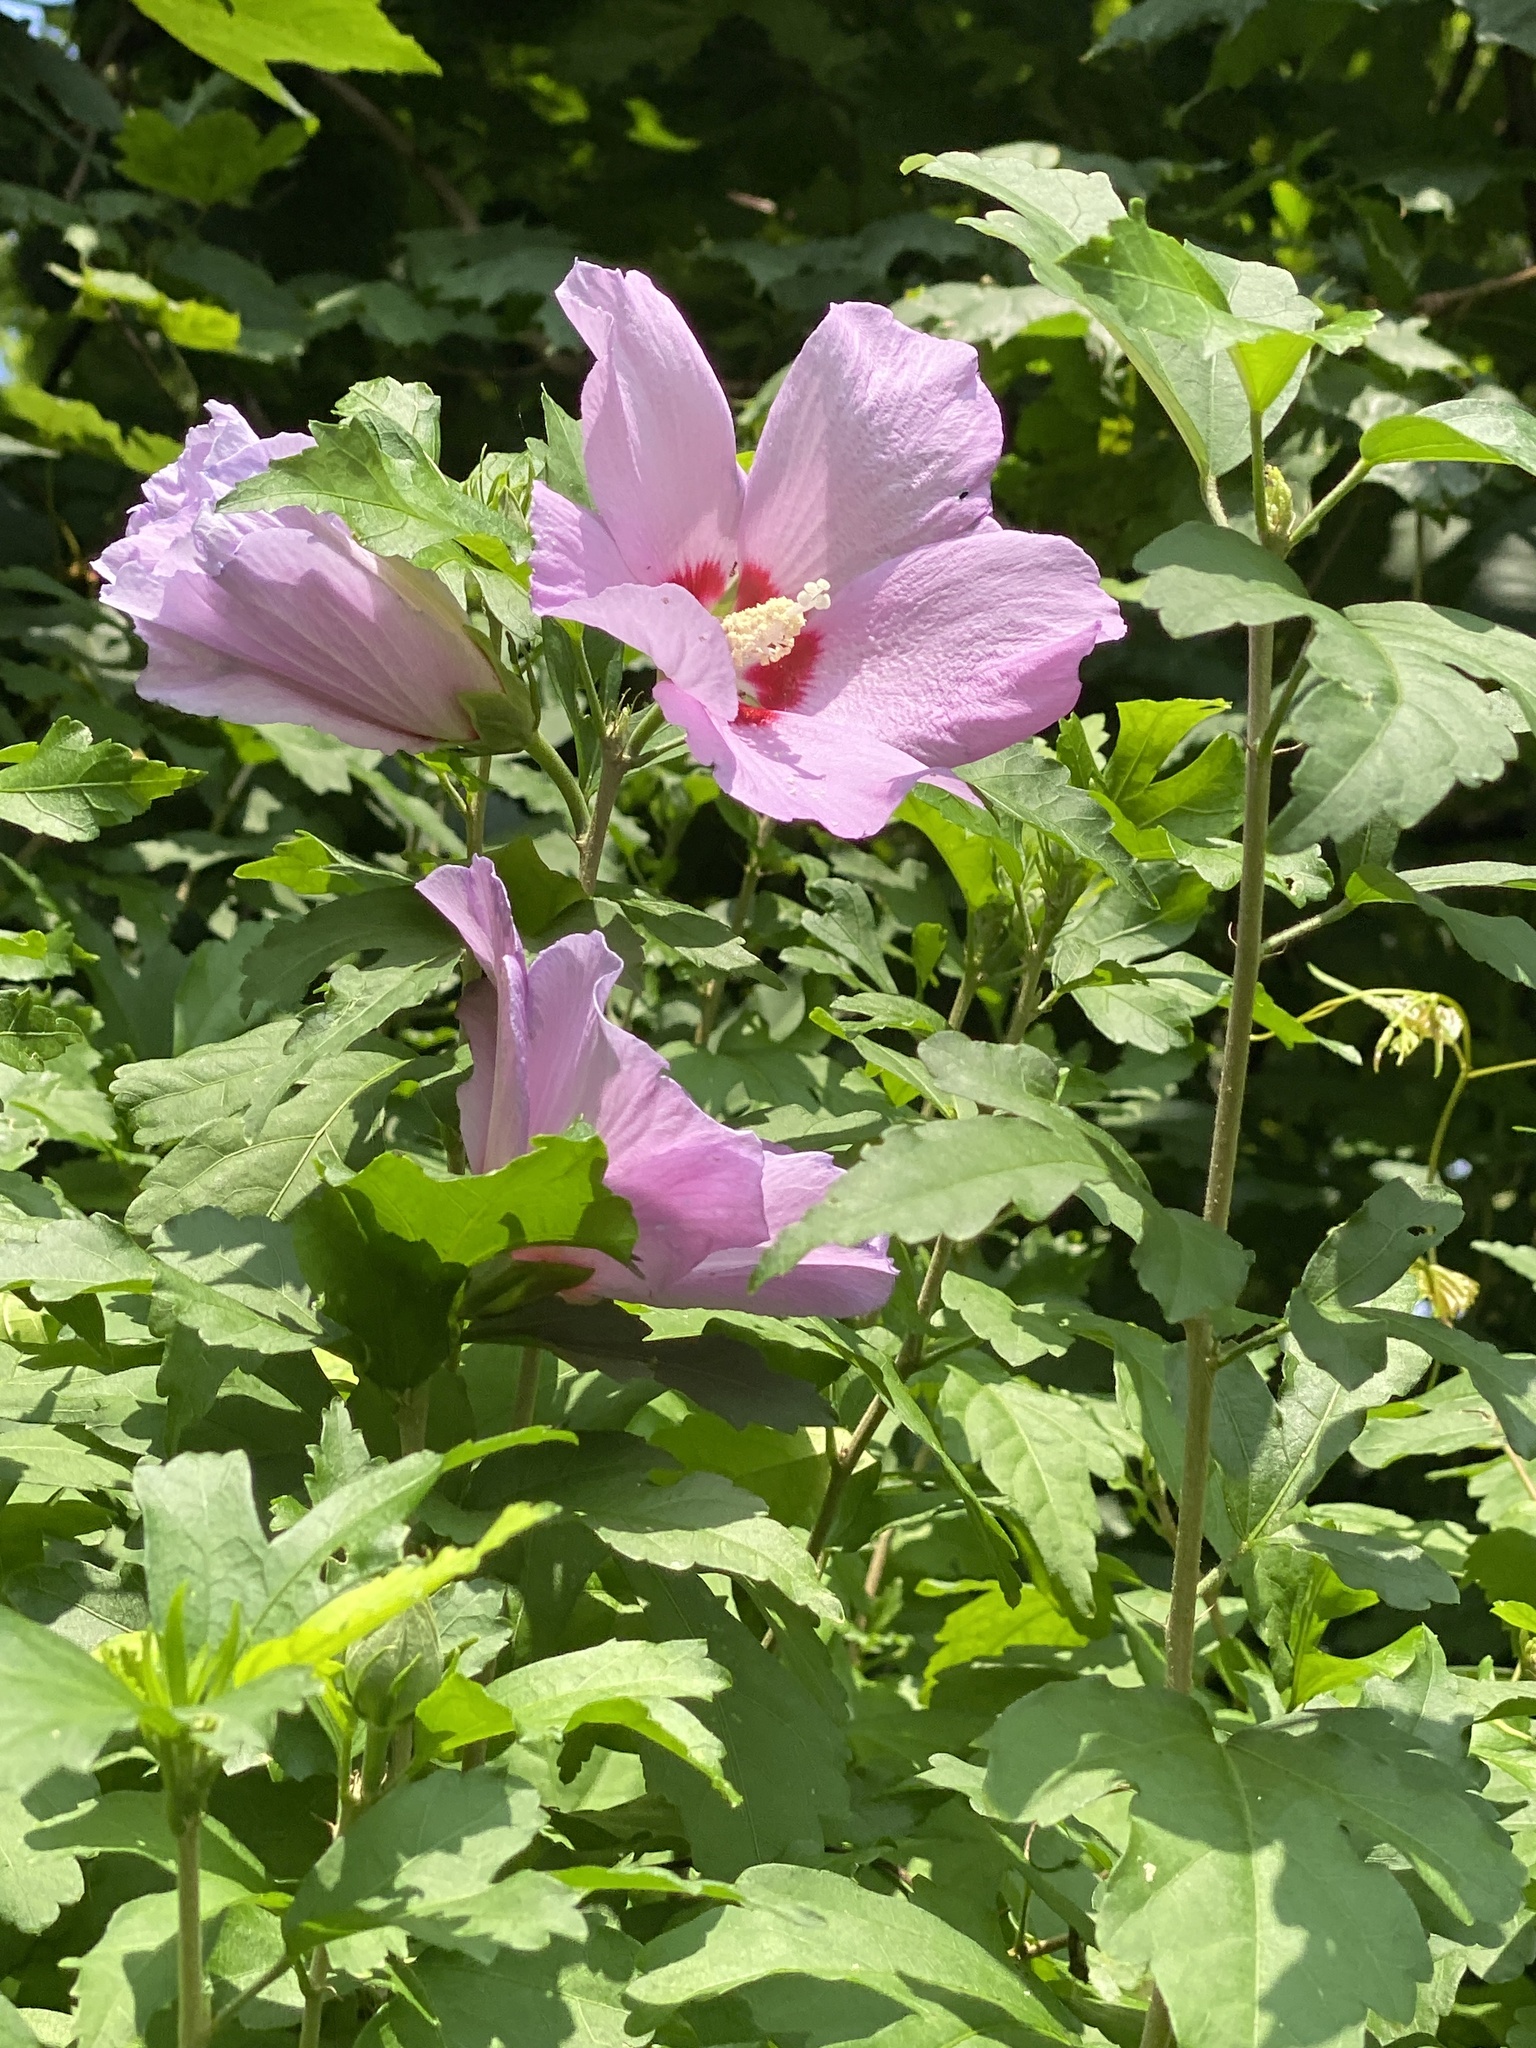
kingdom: Plantae
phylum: Tracheophyta
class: Magnoliopsida
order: Malvales
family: Malvaceae
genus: Hibiscus
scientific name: Hibiscus syriacus
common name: Syrian ketmia
